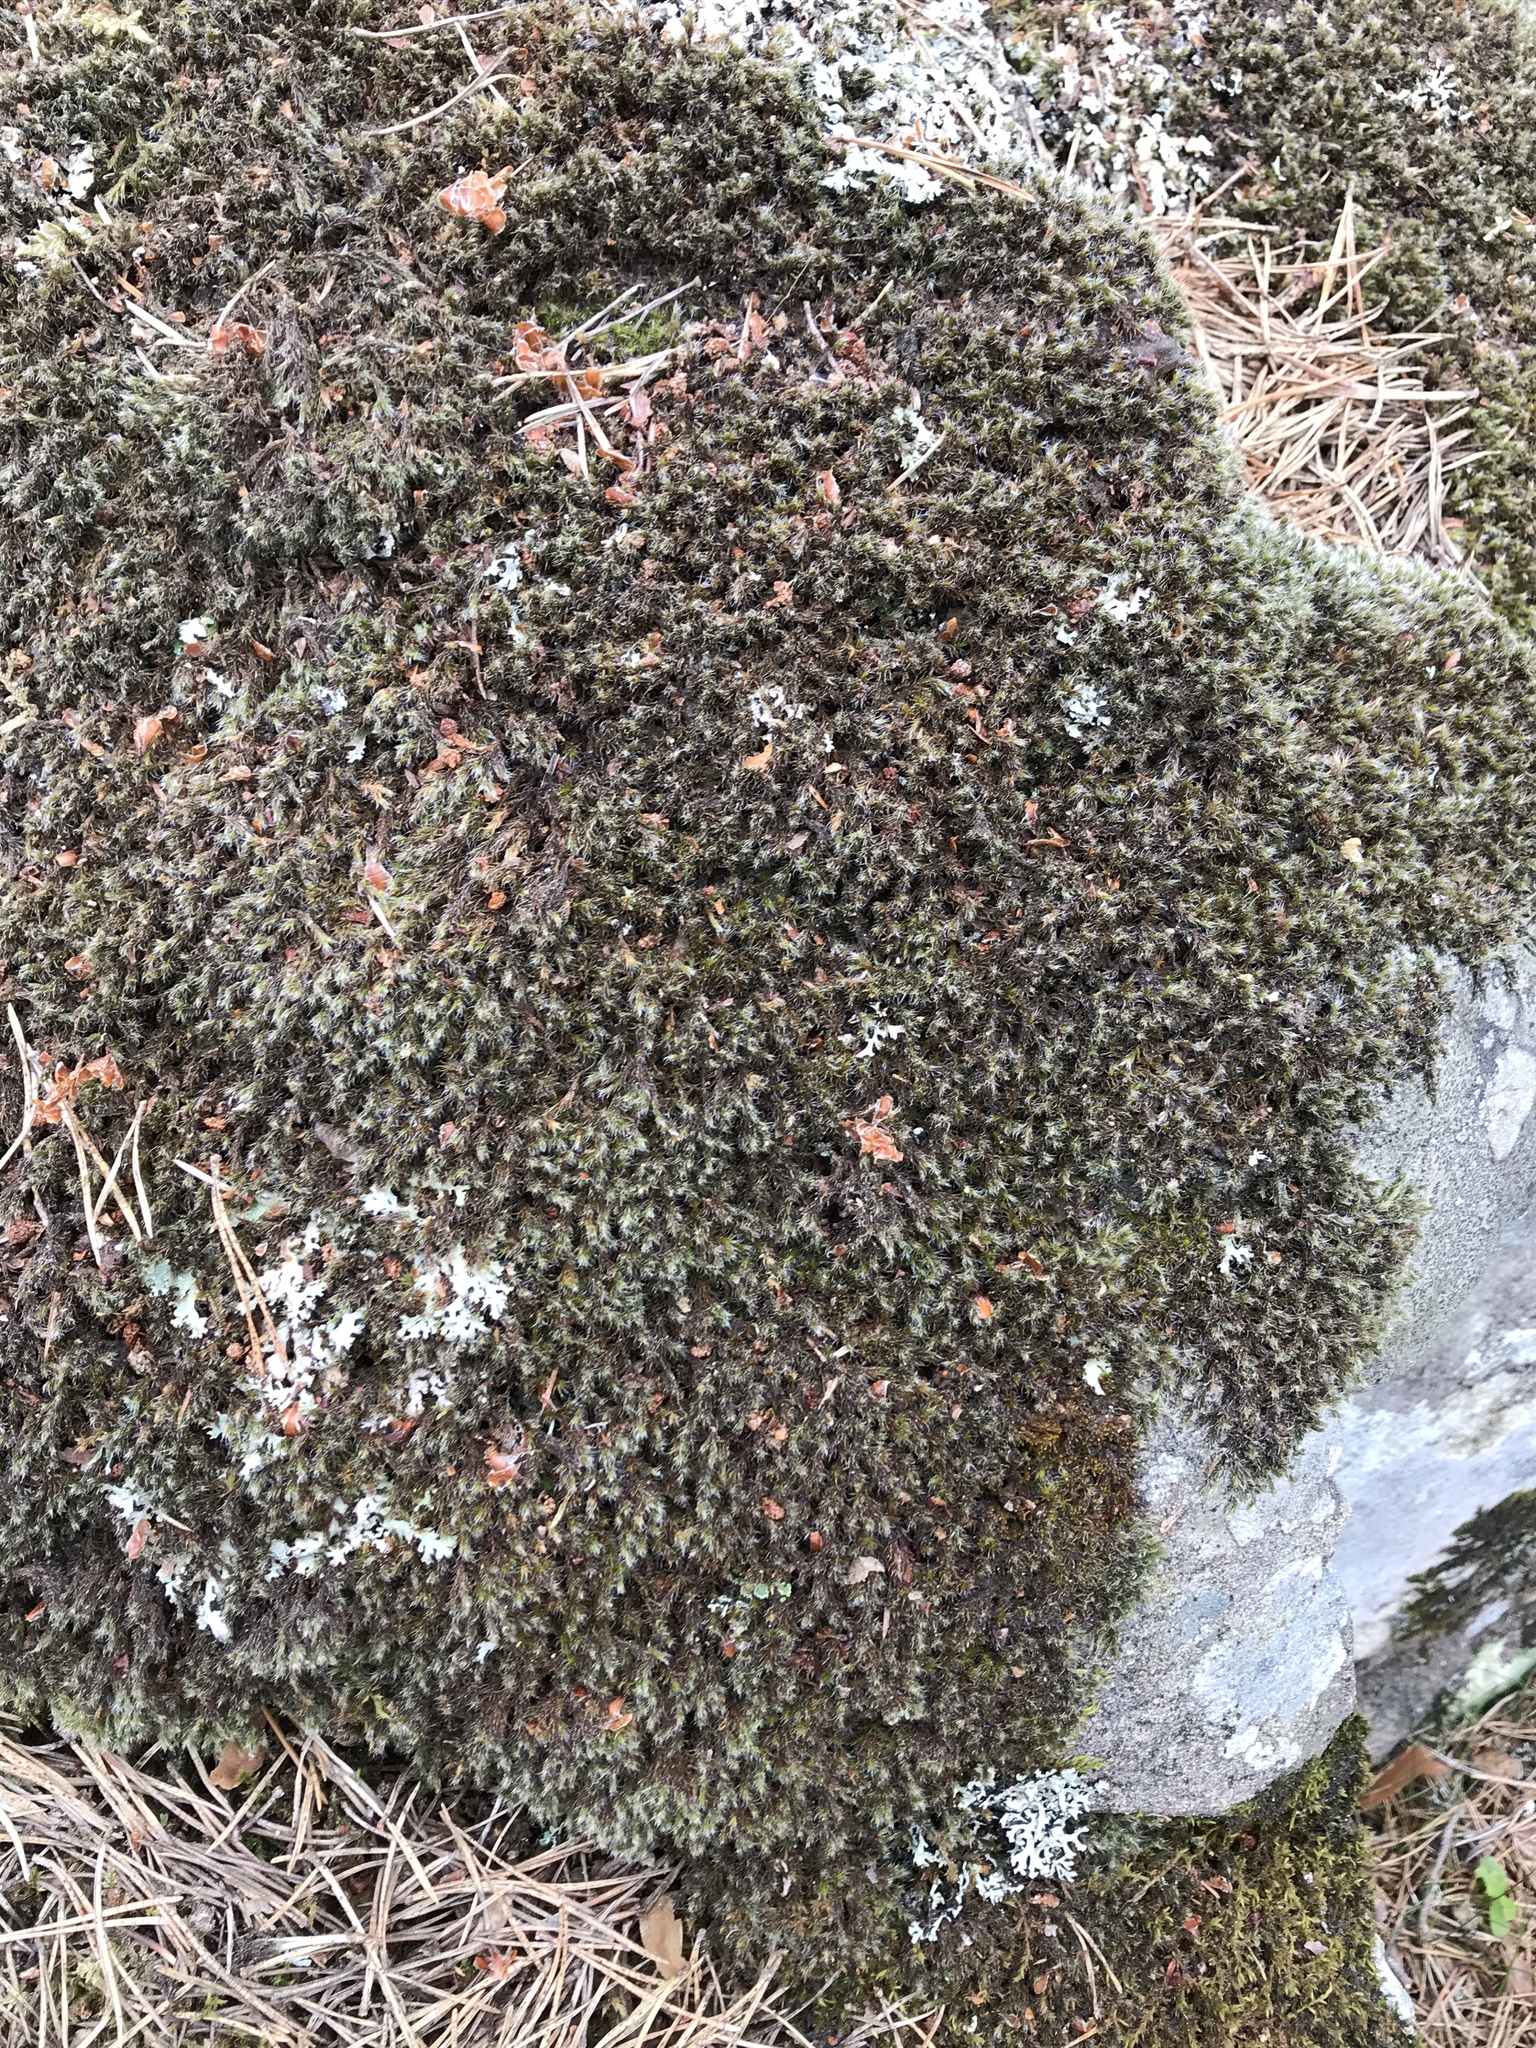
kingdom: Plantae
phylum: Bryophyta
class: Bryopsida
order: Grimmiales
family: Grimmiaceae
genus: Racomitrium
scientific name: Racomitrium lanuginosum
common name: Hoary rock moss
